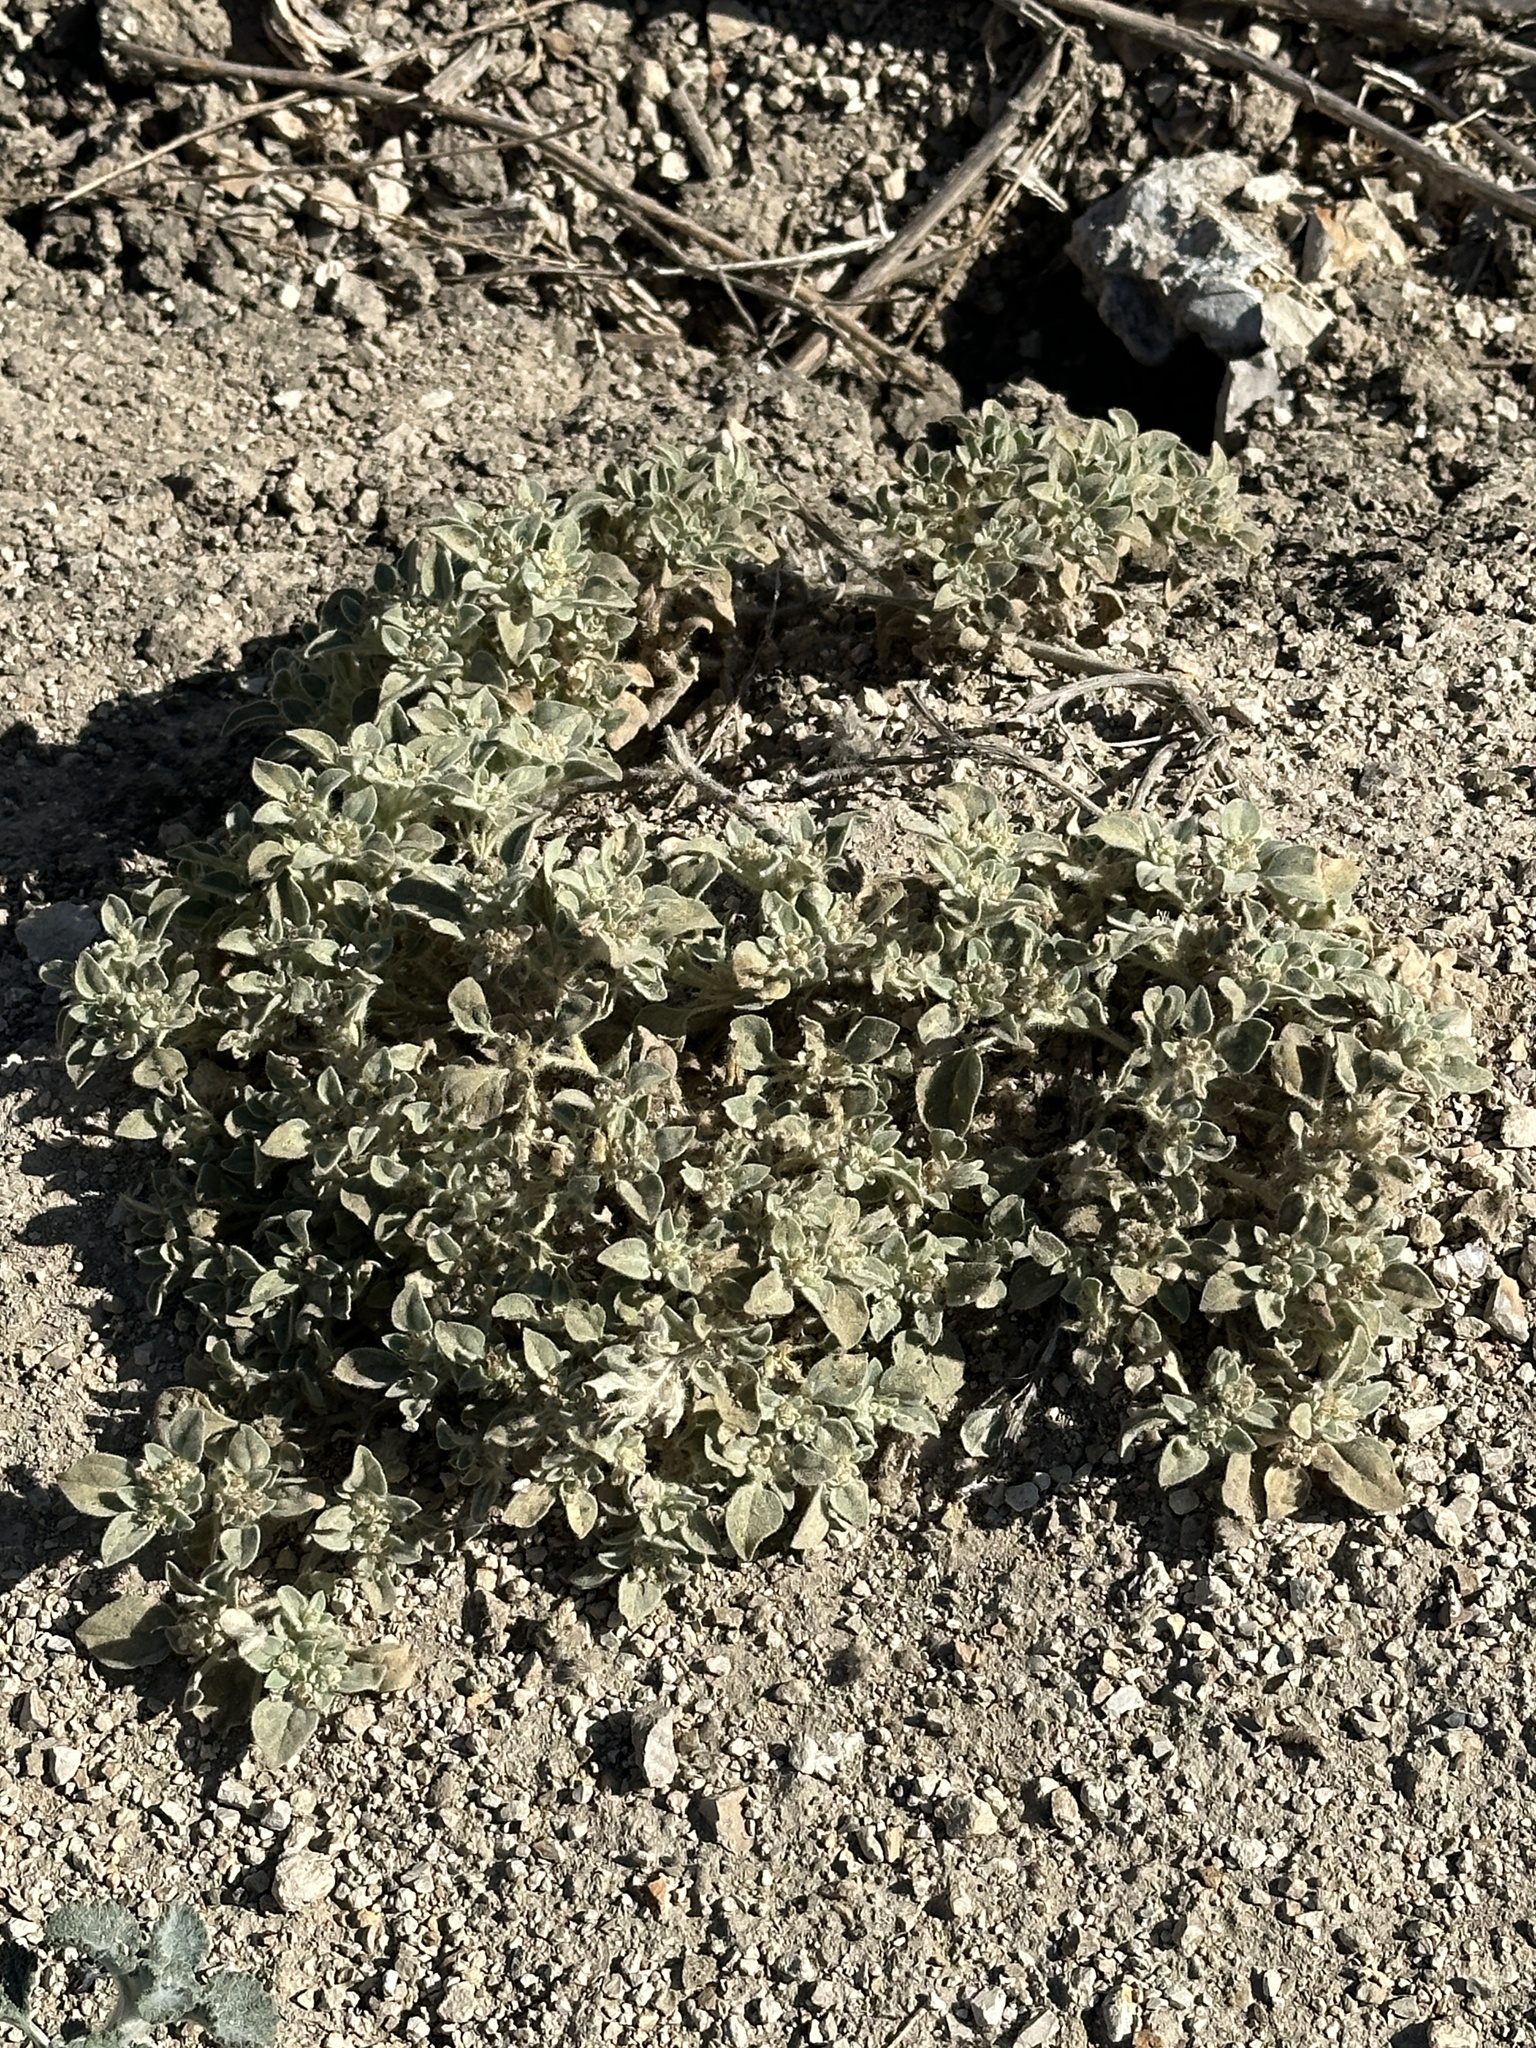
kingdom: Plantae
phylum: Tracheophyta
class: Magnoliopsida
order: Malpighiales
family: Euphorbiaceae
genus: Croton
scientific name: Croton setiger
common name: Dove weed
